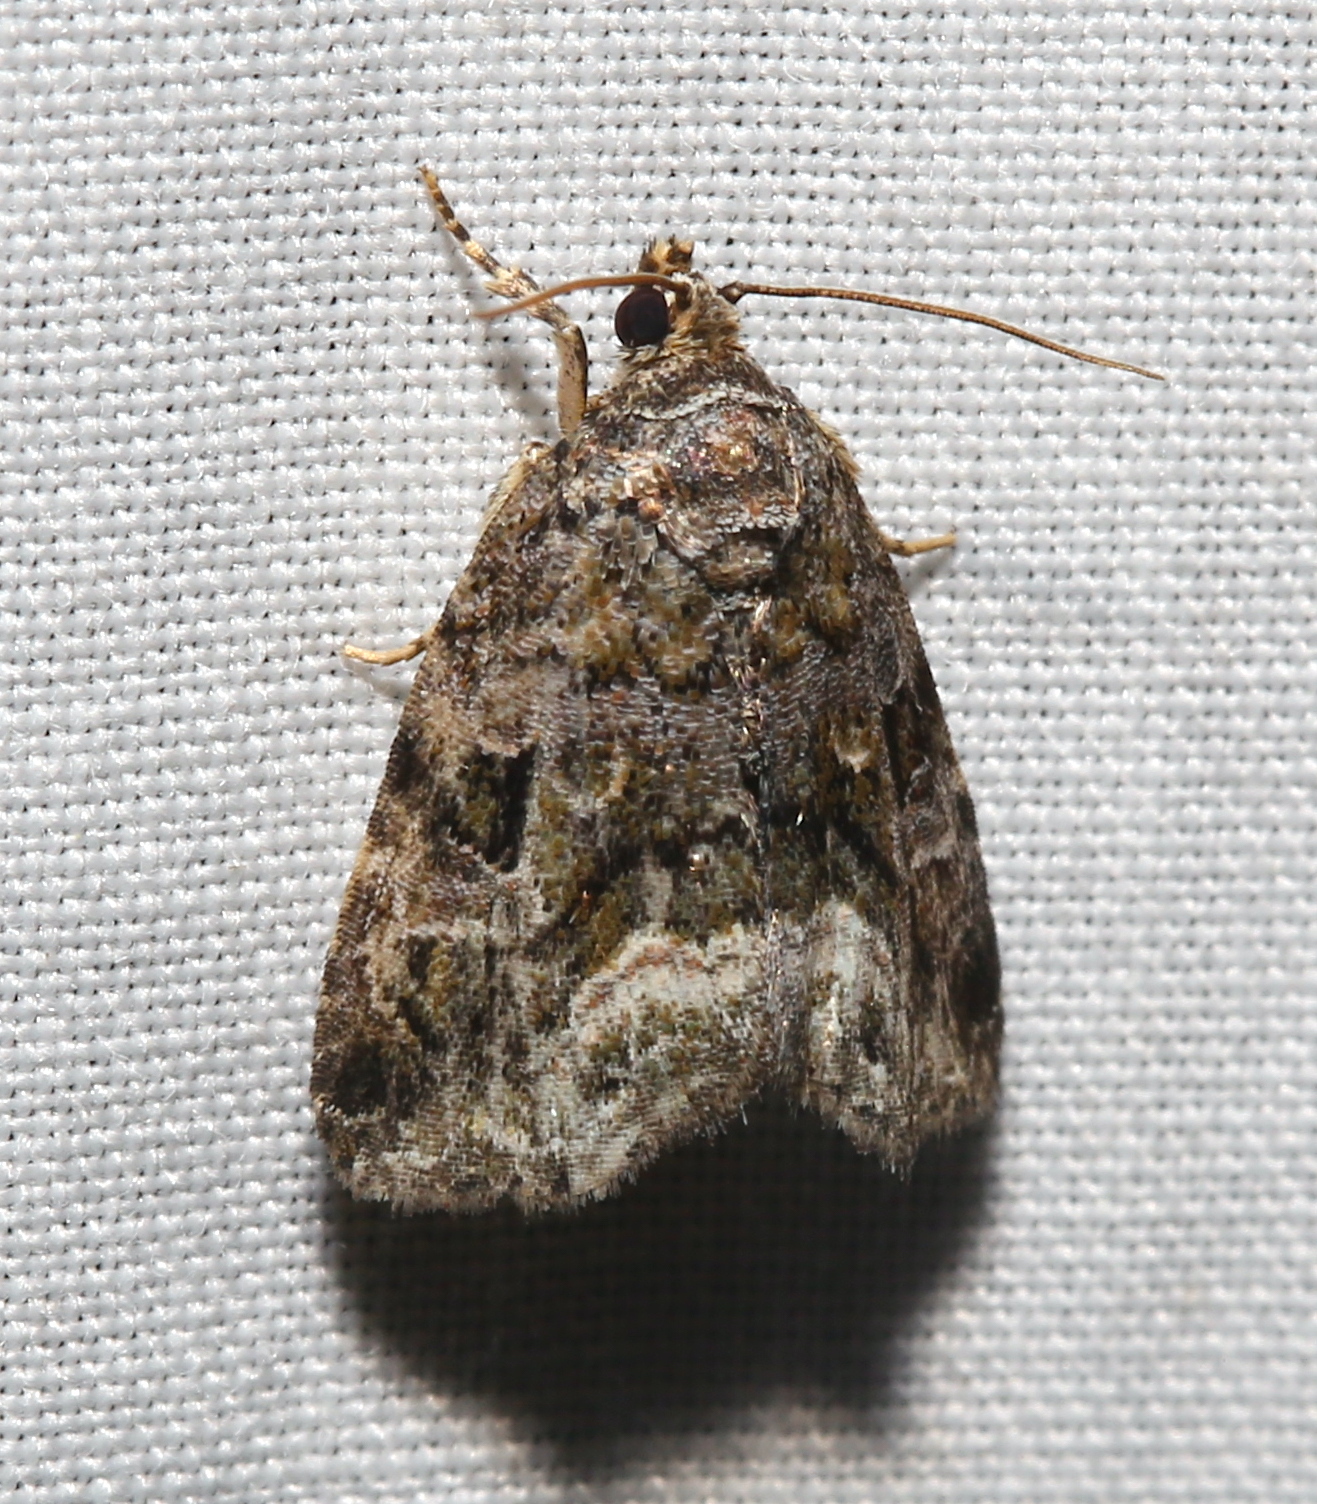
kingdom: Animalia
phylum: Arthropoda
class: Insecta
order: Lepidoptera
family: Noctuidae
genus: Protodeltote
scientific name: Protodeltote muscosula
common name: Large mossy glyph
